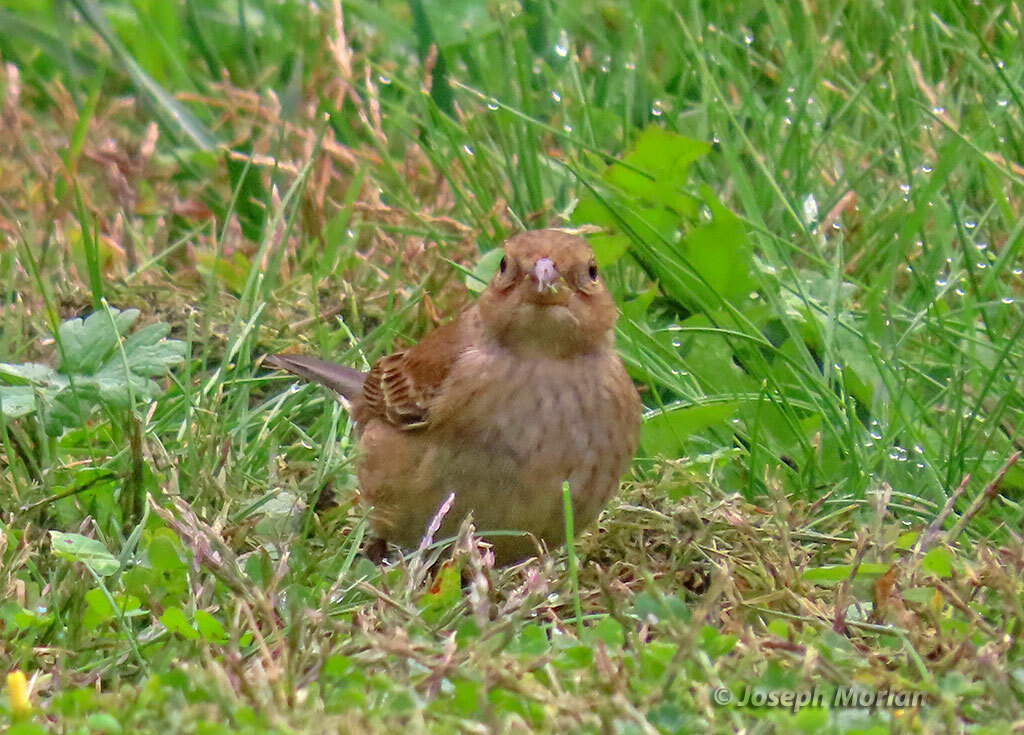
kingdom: Animalia
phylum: Chordata
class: Aves
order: Passeriformes
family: Cardinalidae
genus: Passerina
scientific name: Passerina cyanea
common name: Indigo bunting
